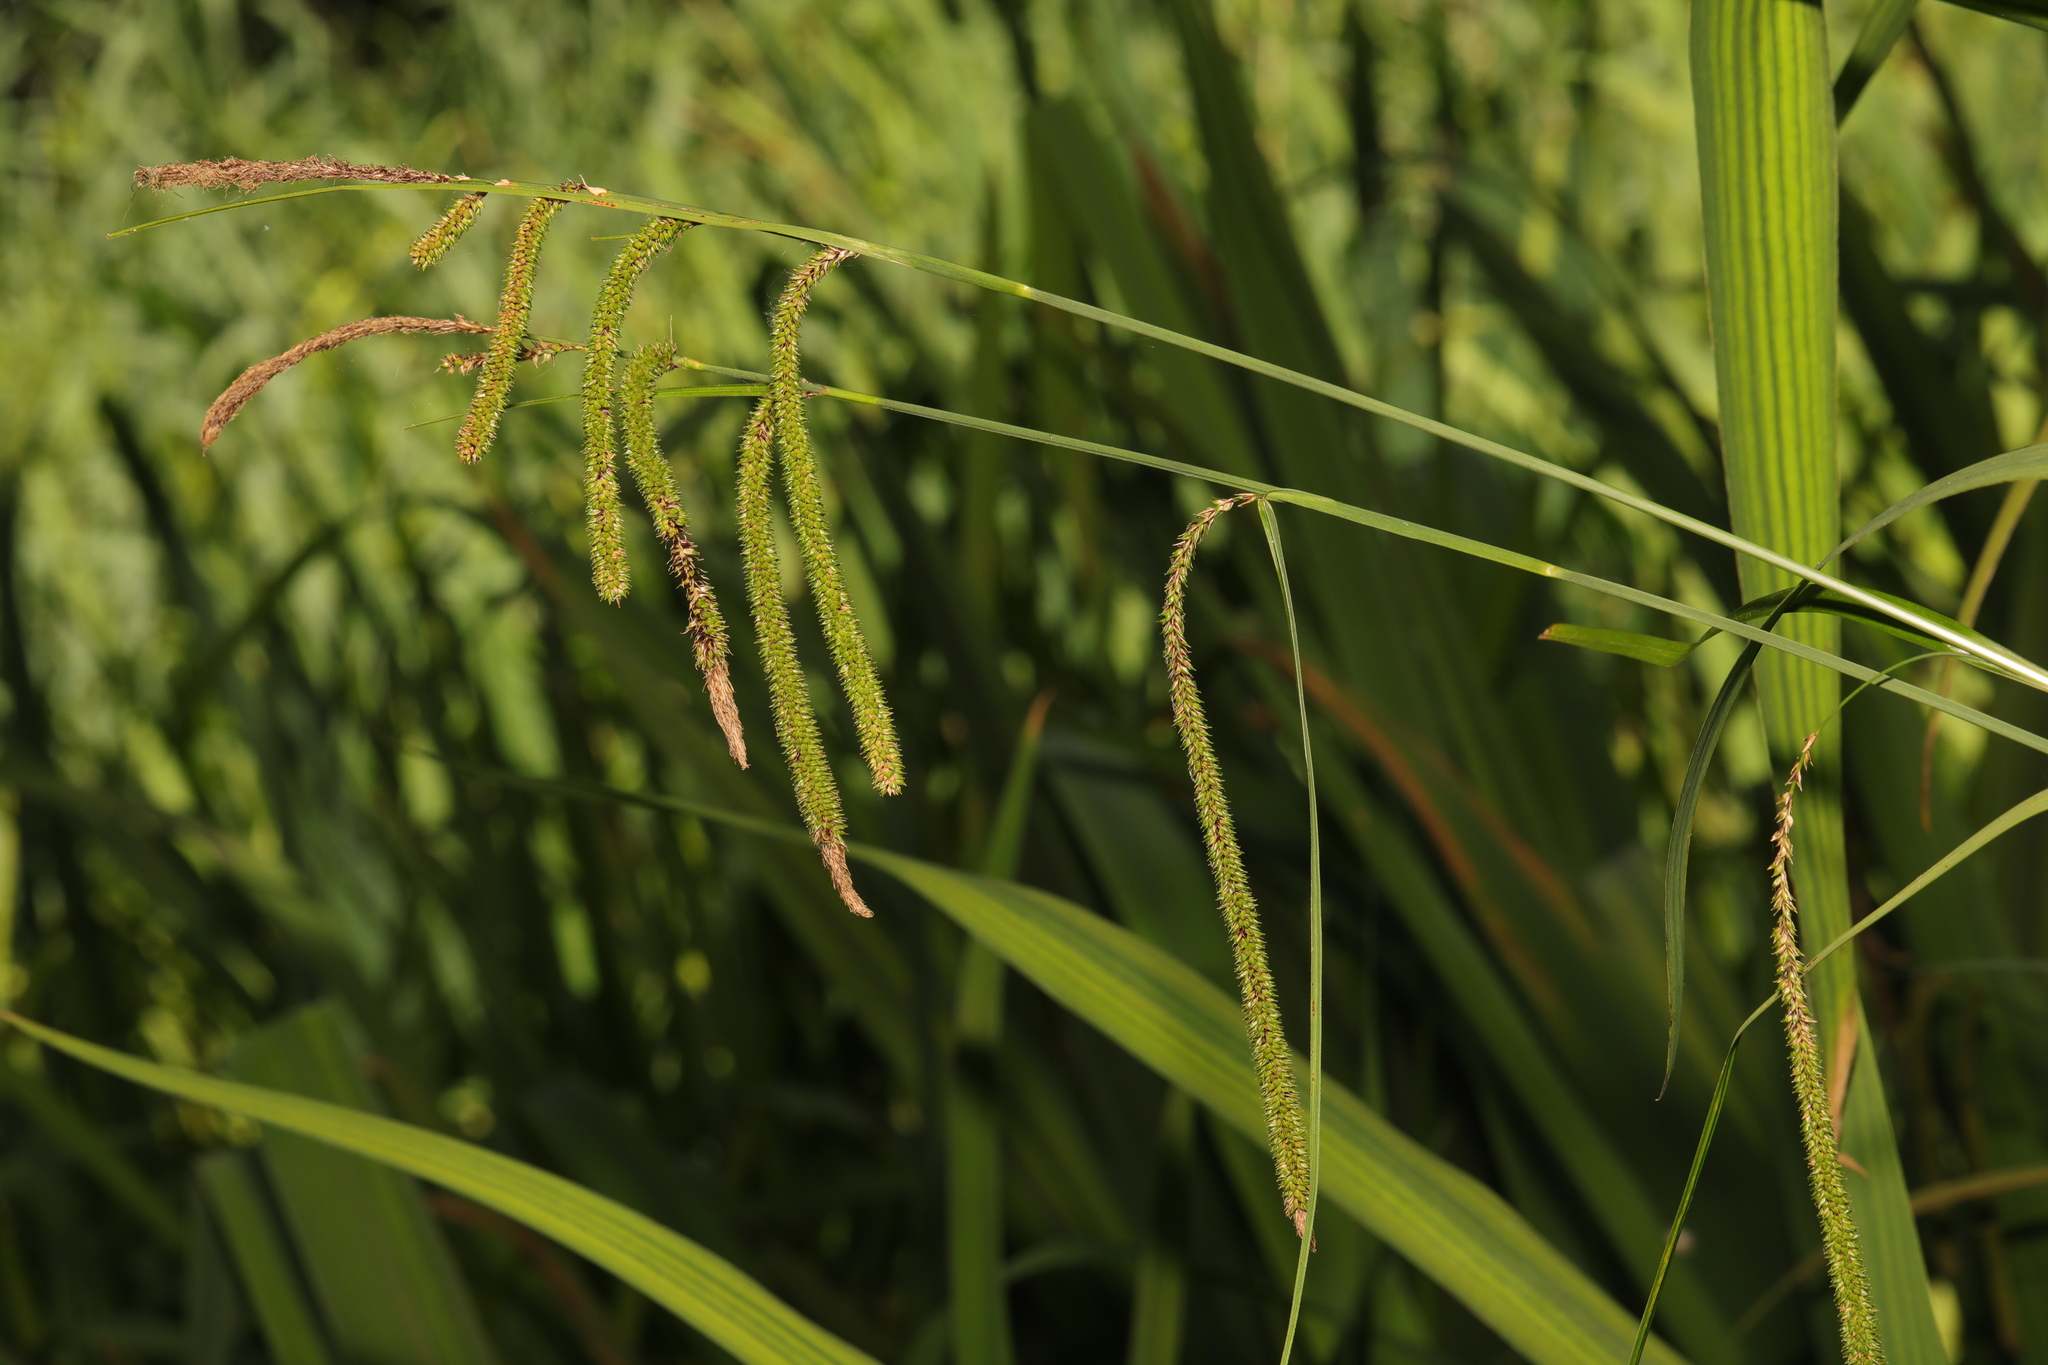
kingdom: Plantae
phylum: Tracheophyta
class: Liliopsida
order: Poales
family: Cyperaceae
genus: Carex
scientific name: Carex pendula
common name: Pendulous sedge
